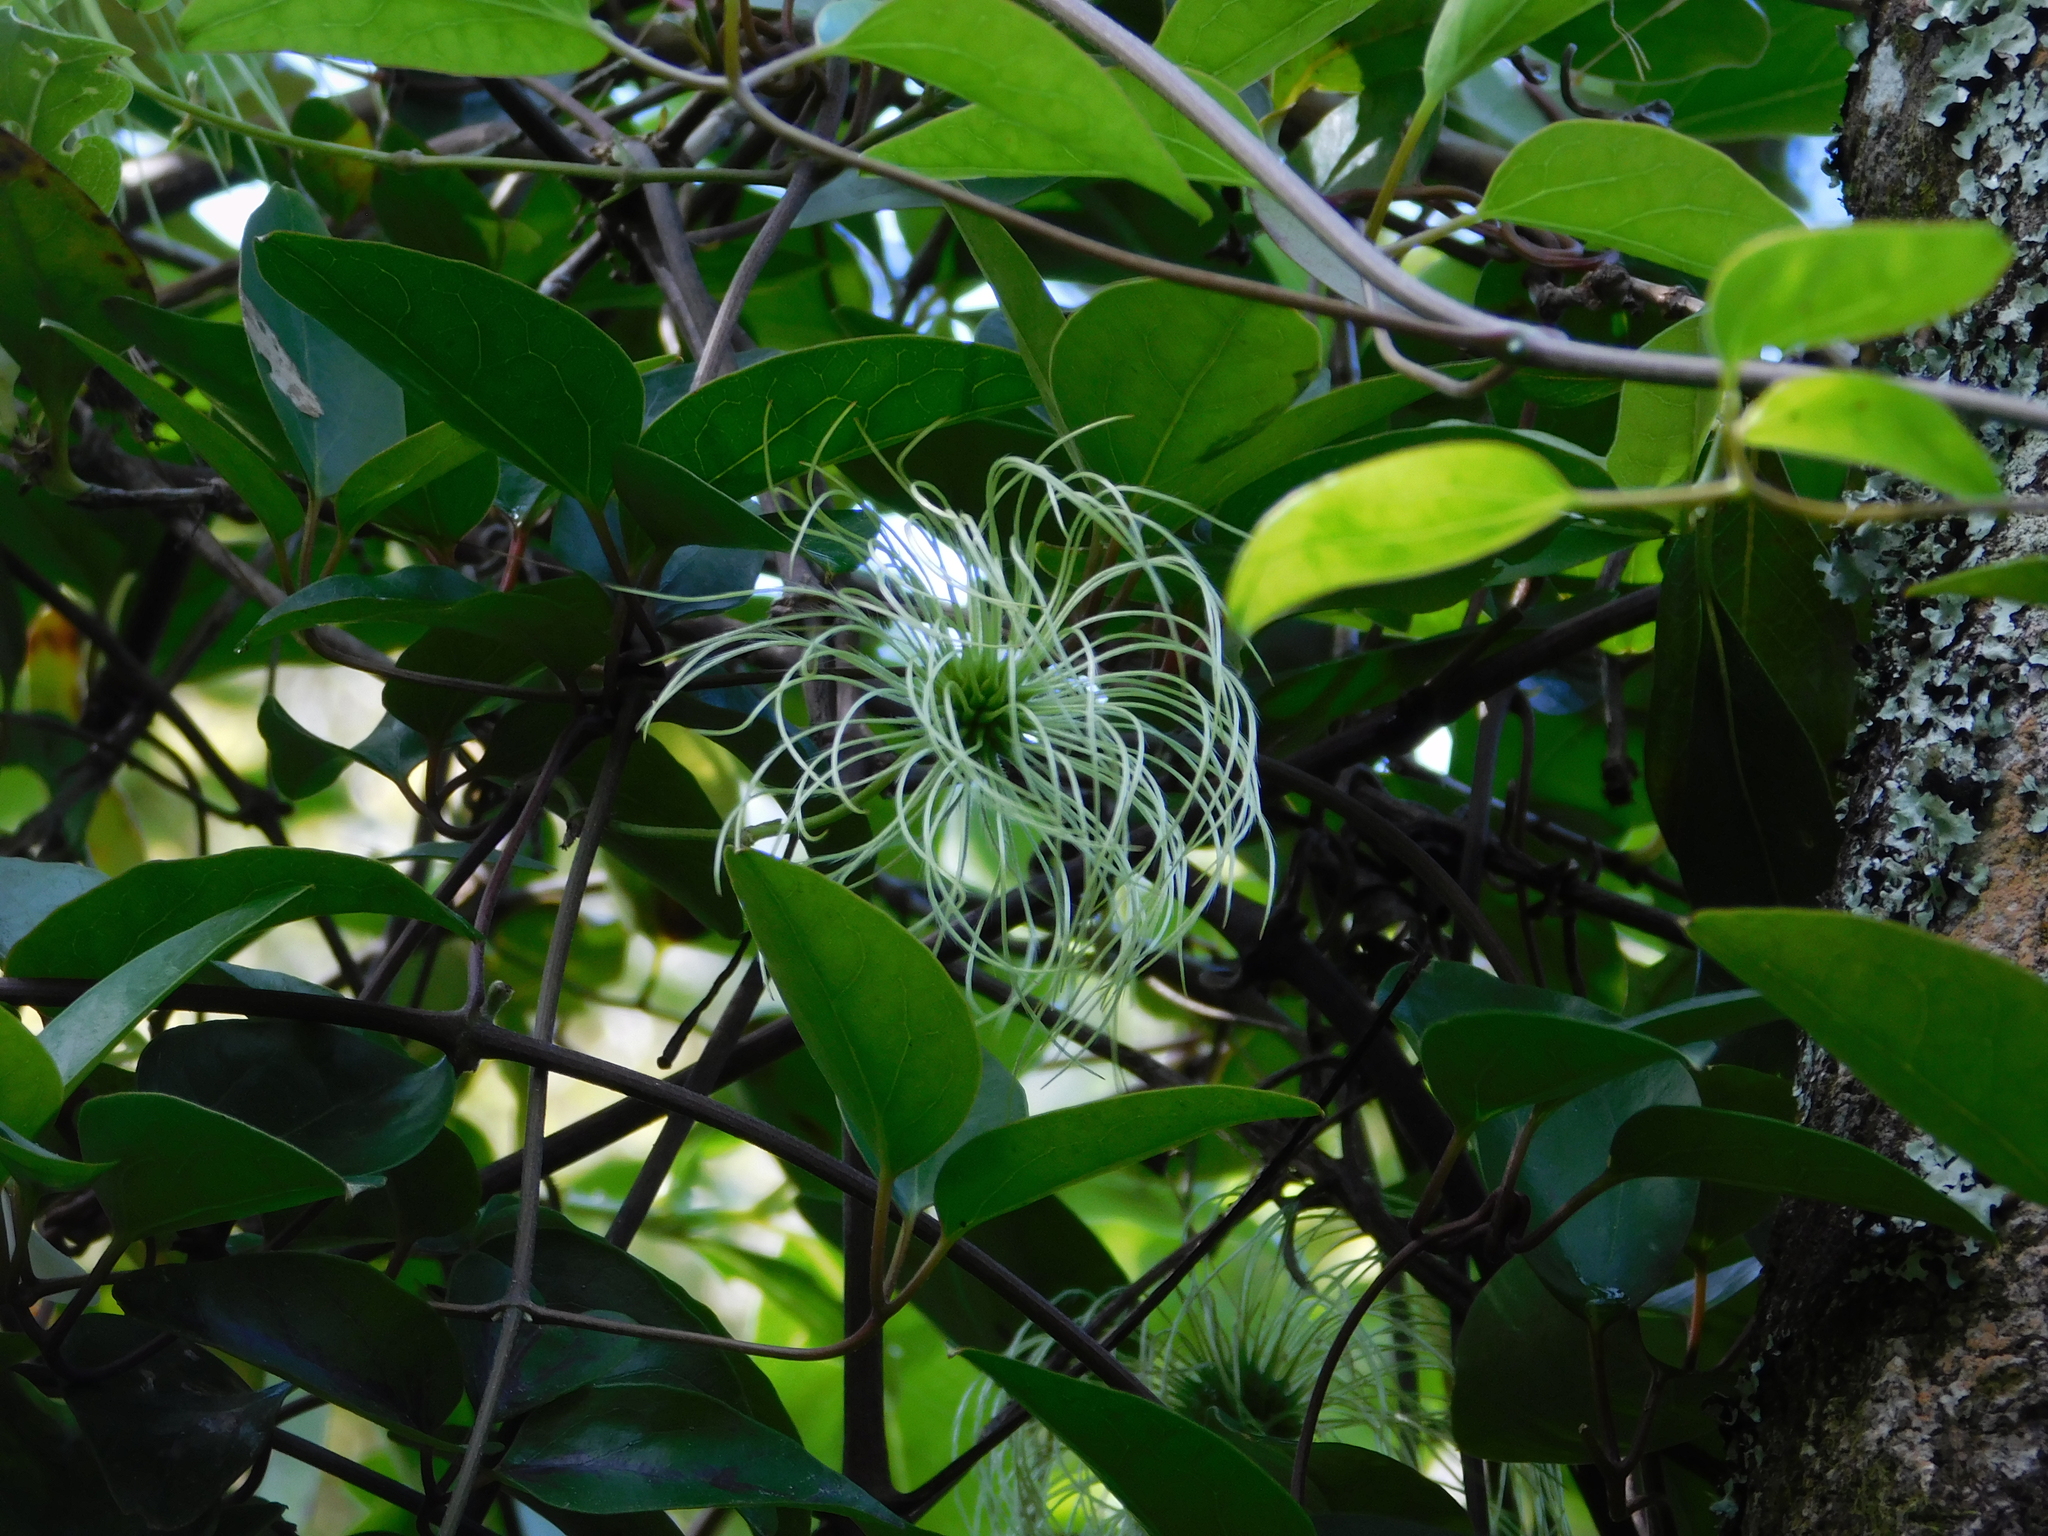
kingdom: Plantae
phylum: Tracheophyta
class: Magnoliopsida
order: Ranunculales
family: Ranunculaceae
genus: Clematis
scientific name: Clematis paniculata
